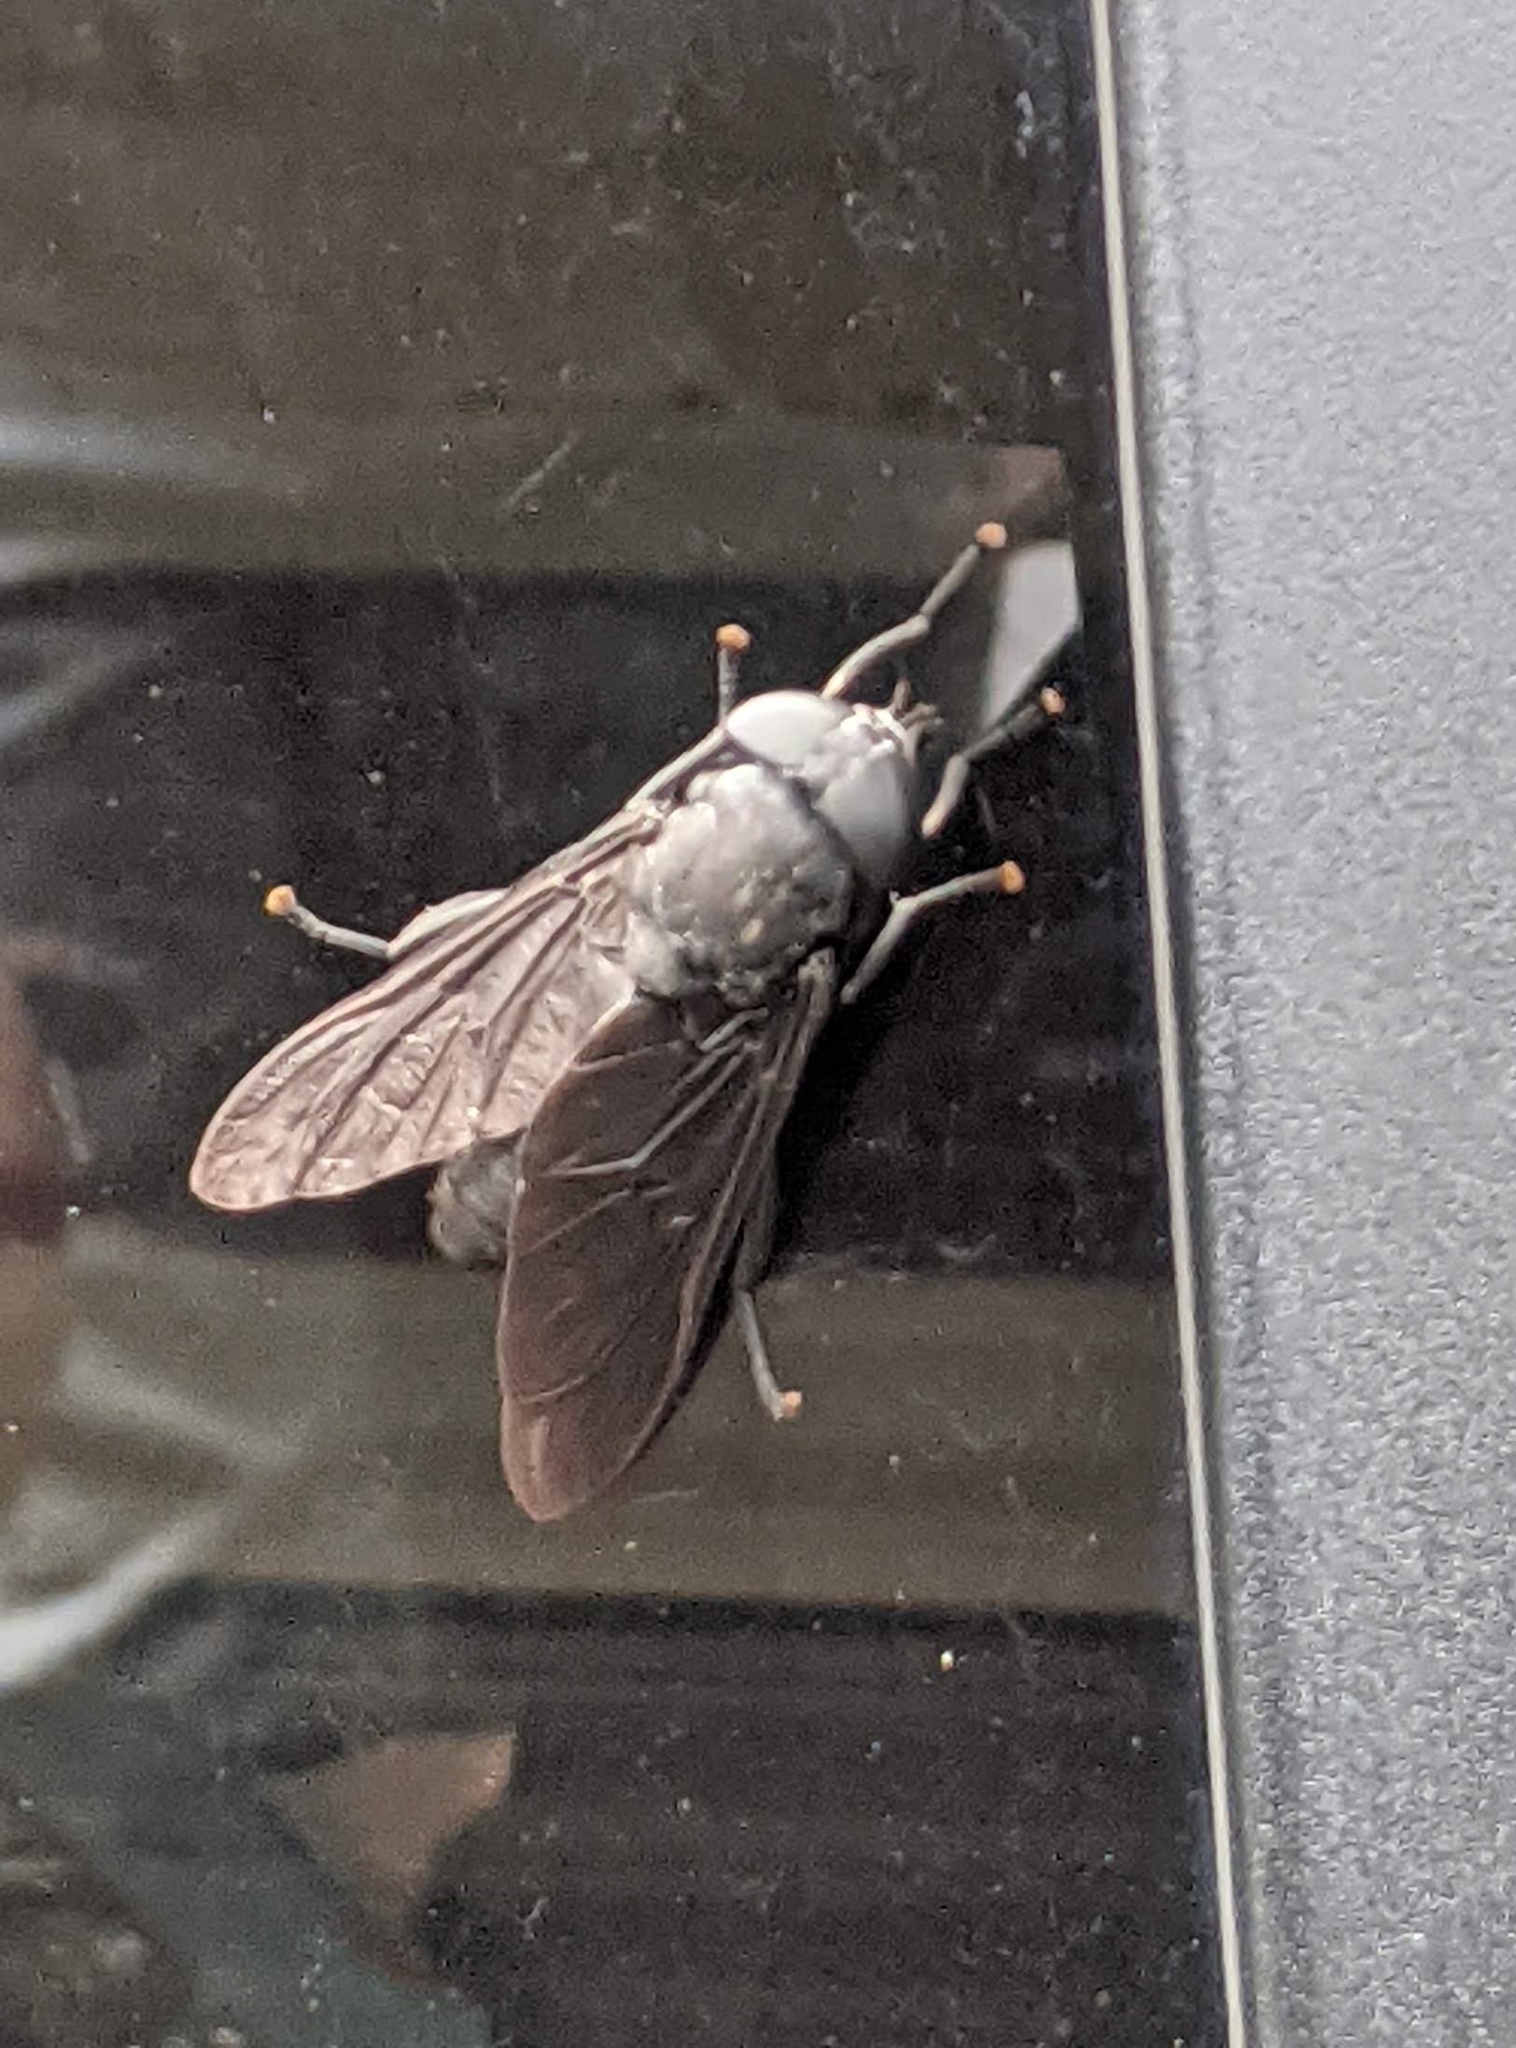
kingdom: Animalia
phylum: Arthropoda
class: Insecta
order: Diptera
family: Tabanidae
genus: Tabanus
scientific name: Tabanus atratus
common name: Black horse fly
